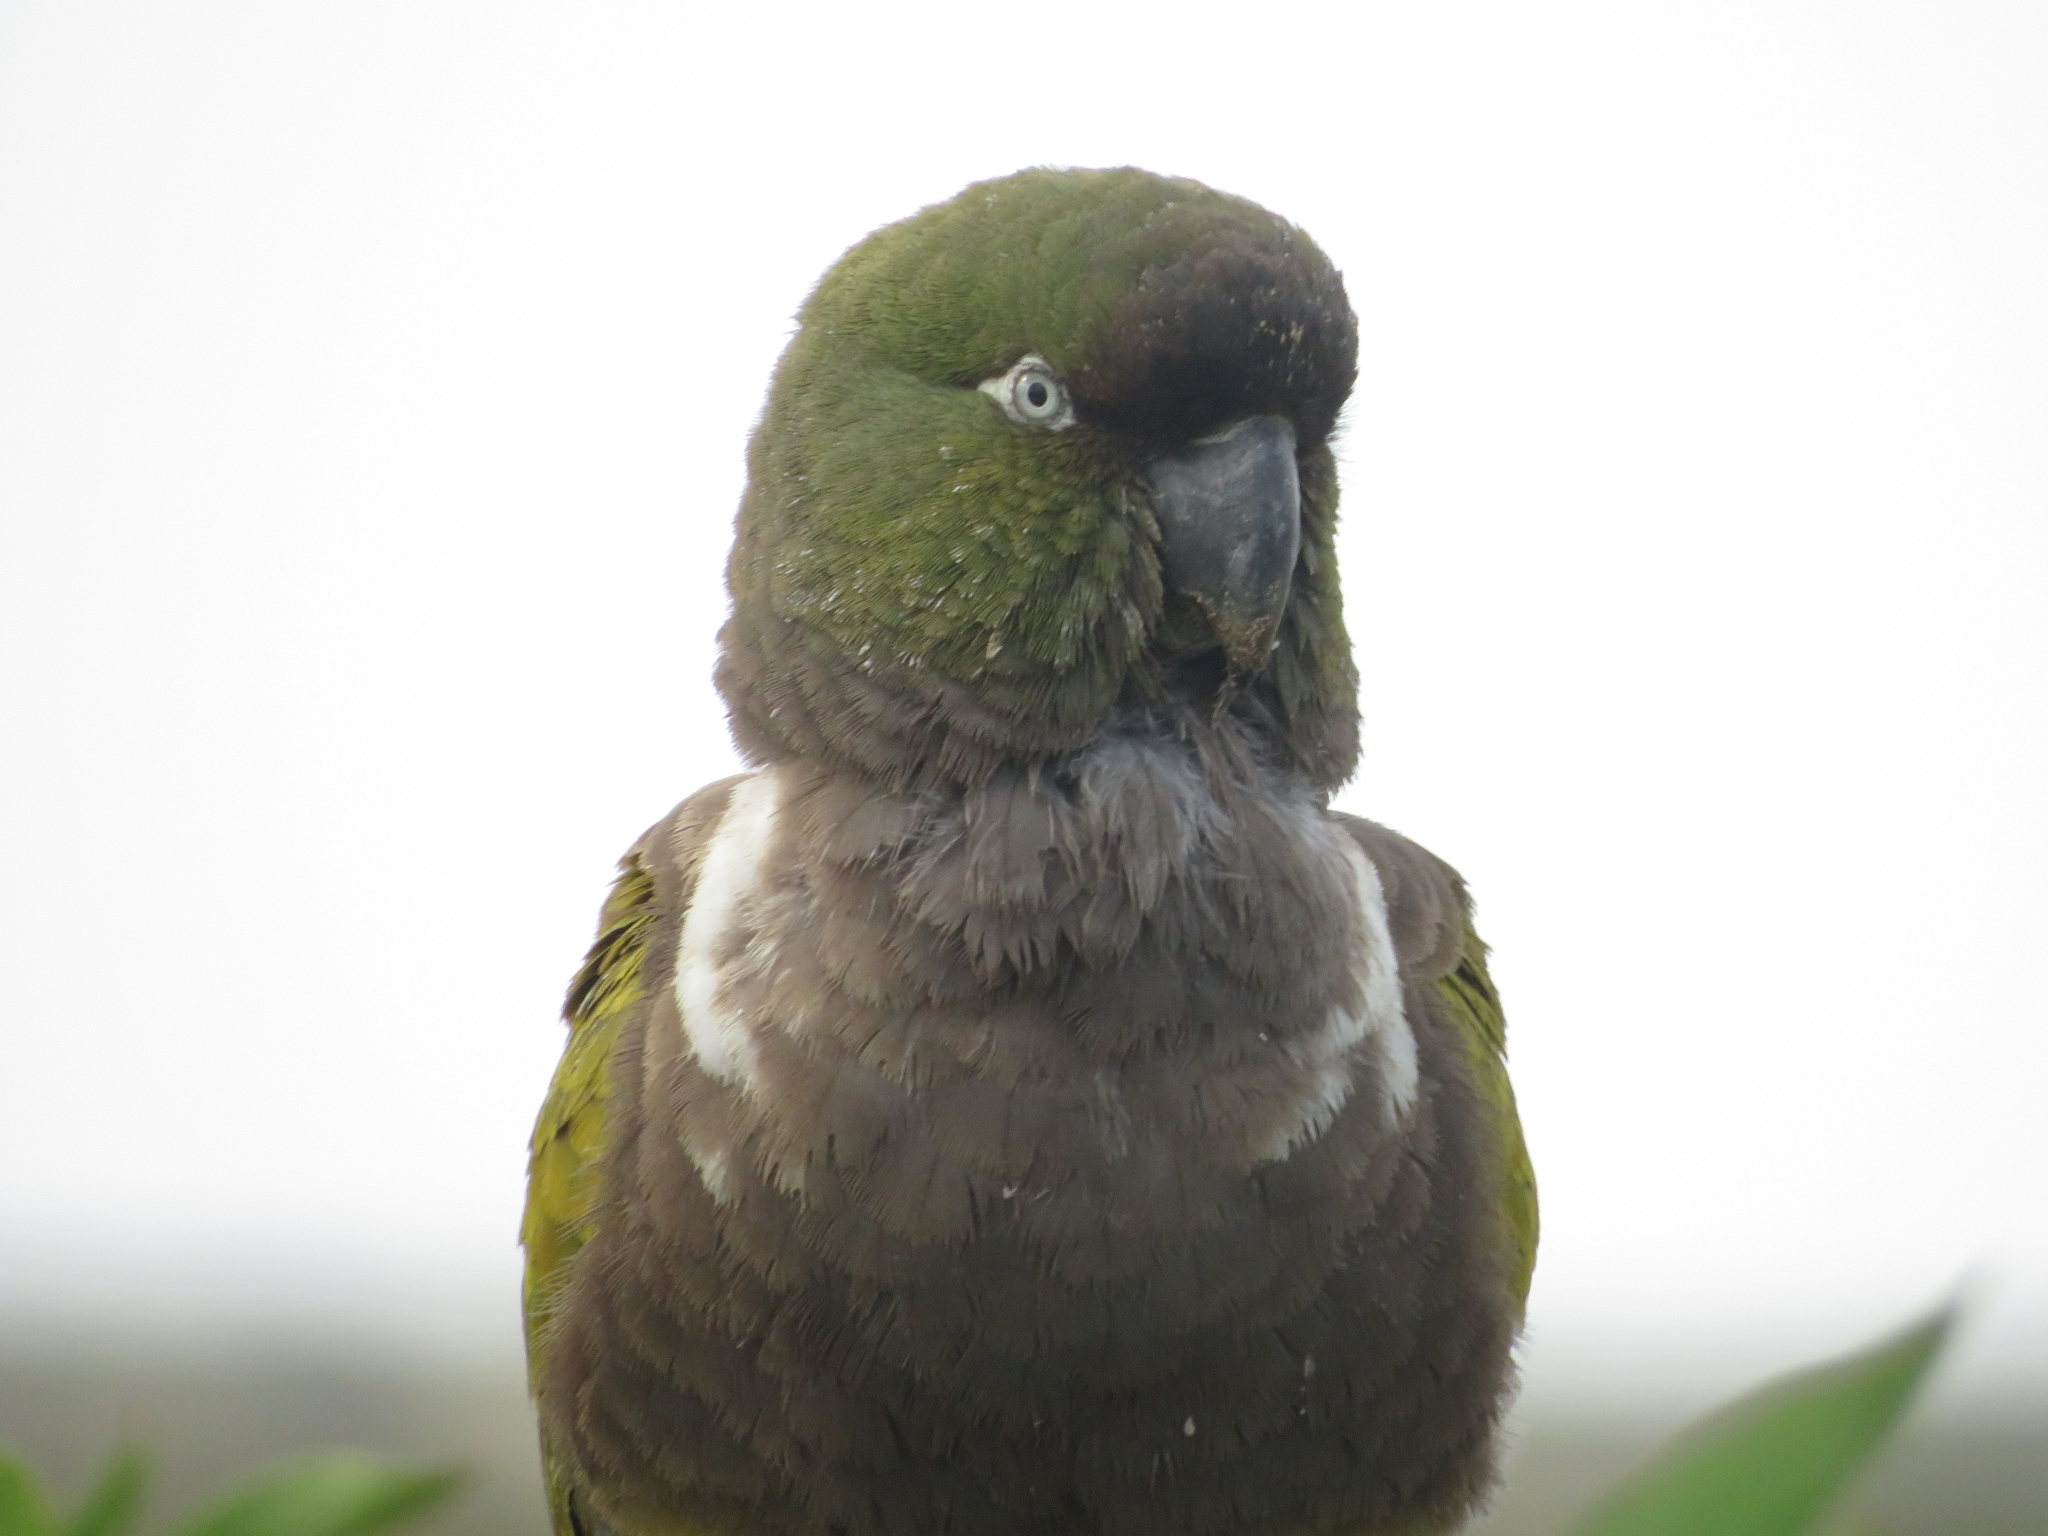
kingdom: Animalia
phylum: Chordata
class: Aves
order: Psittaciformes
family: Psittacidae
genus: Cyanoliseus
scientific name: Cyanoliseus patagonus
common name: Burrowing parrot
